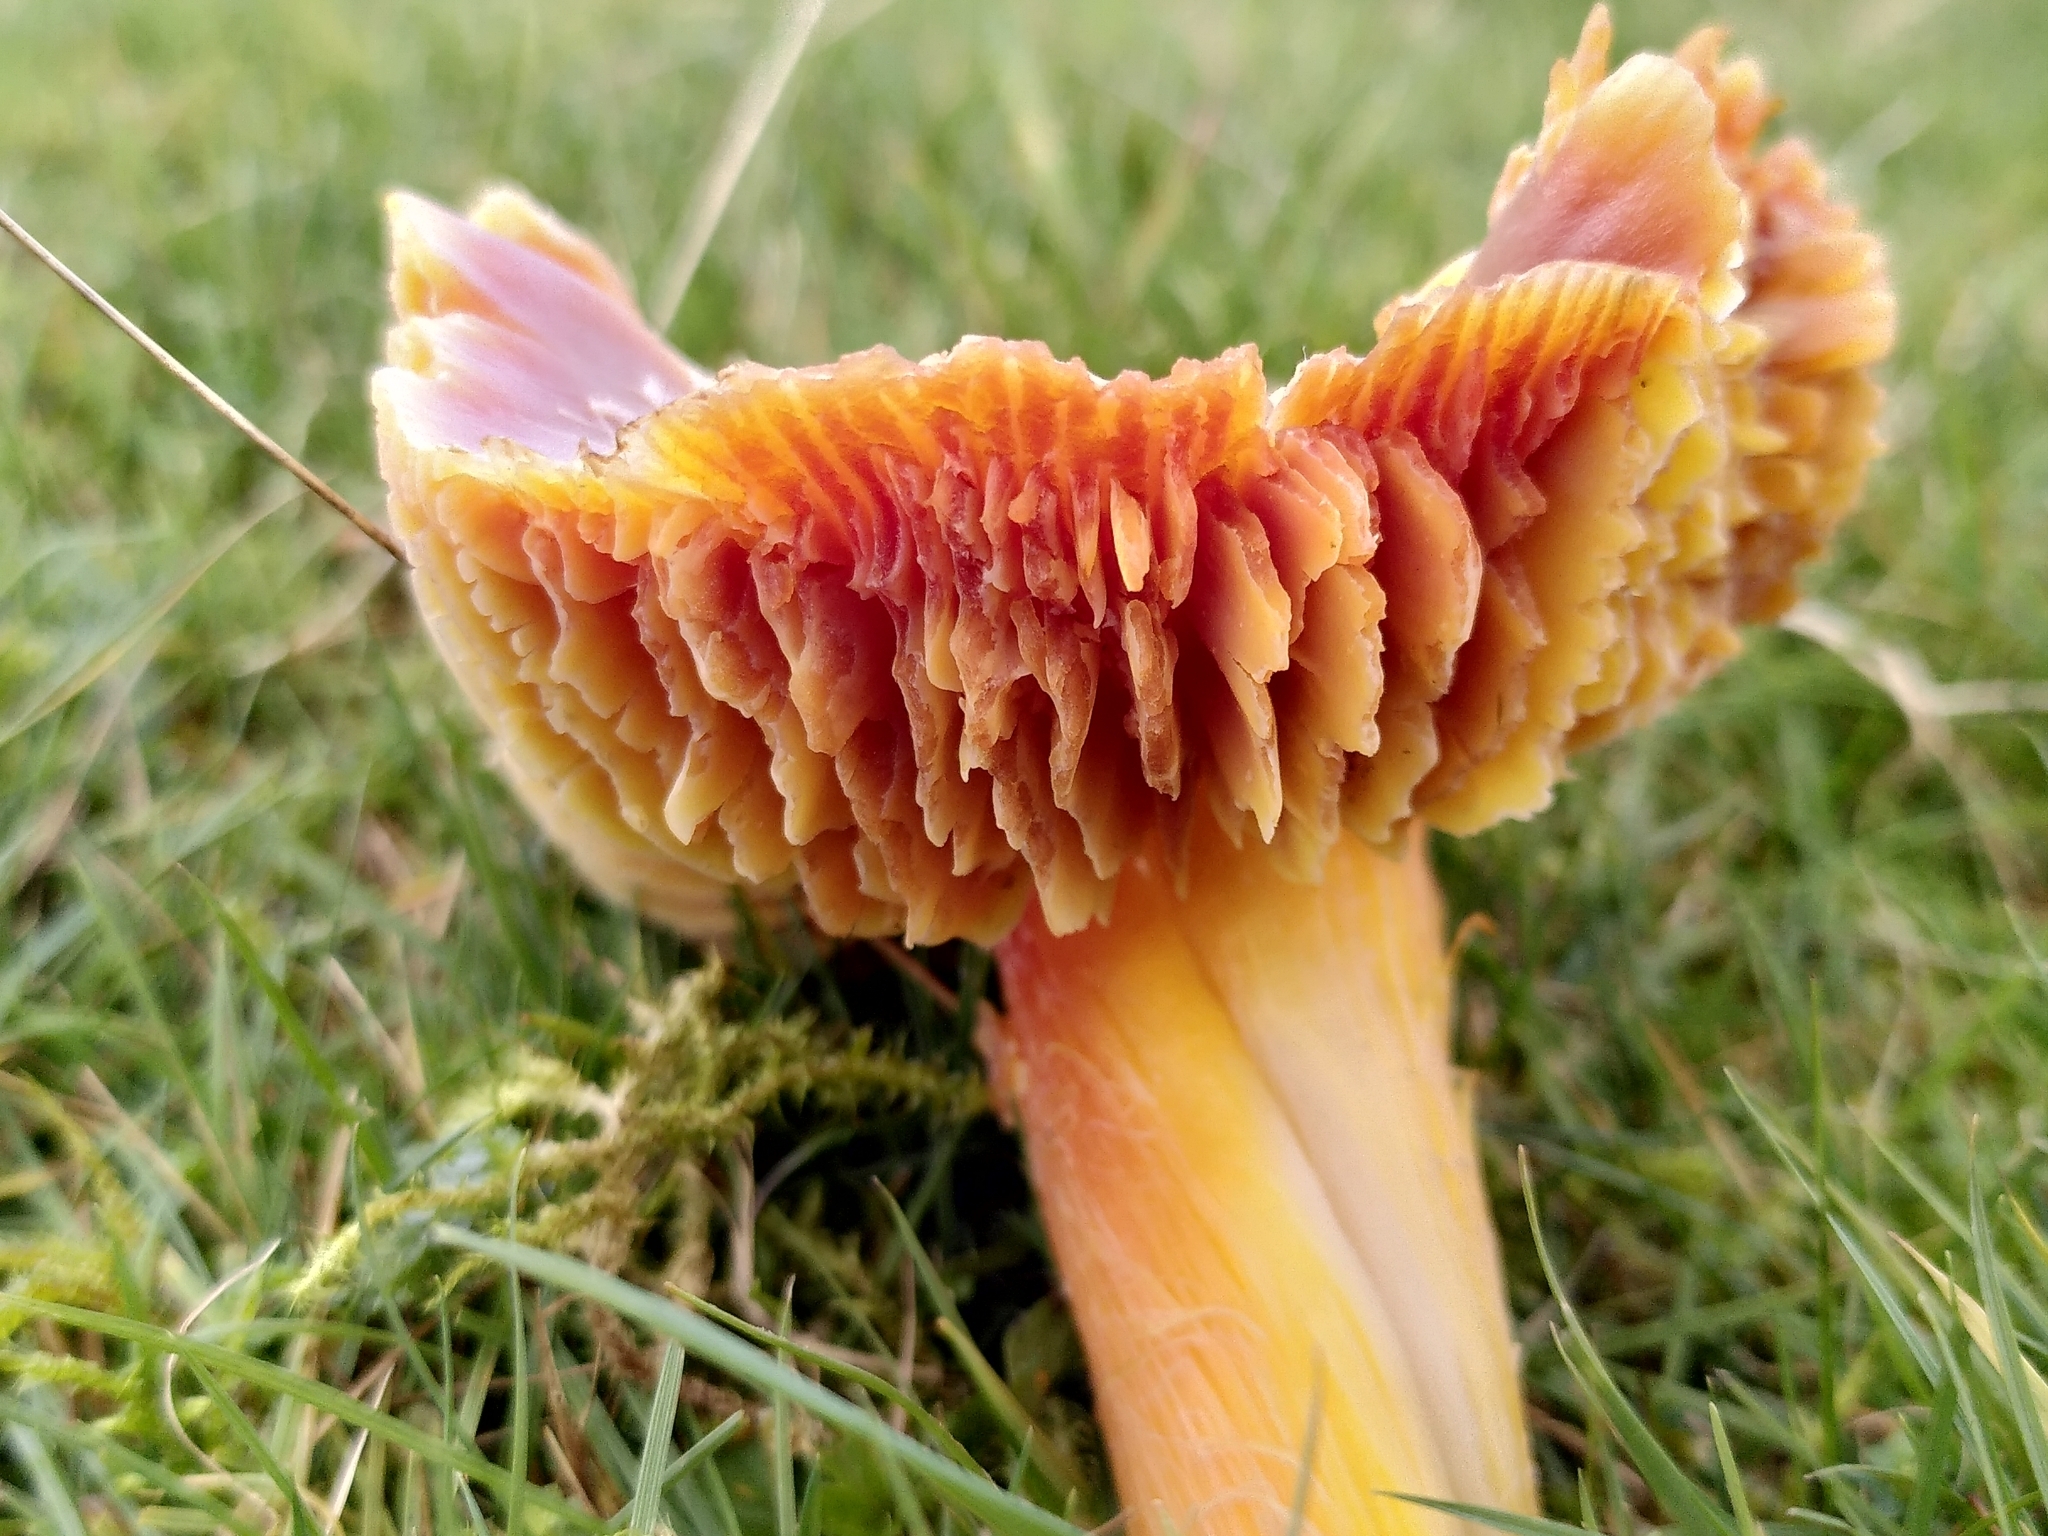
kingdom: Fungi
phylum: Basidiomycota
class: Agaricomycetes
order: Agaricales
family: Hygrophoraceae
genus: Hygrocybe
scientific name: Hygrocybe punicea
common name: Crimson waxcap
